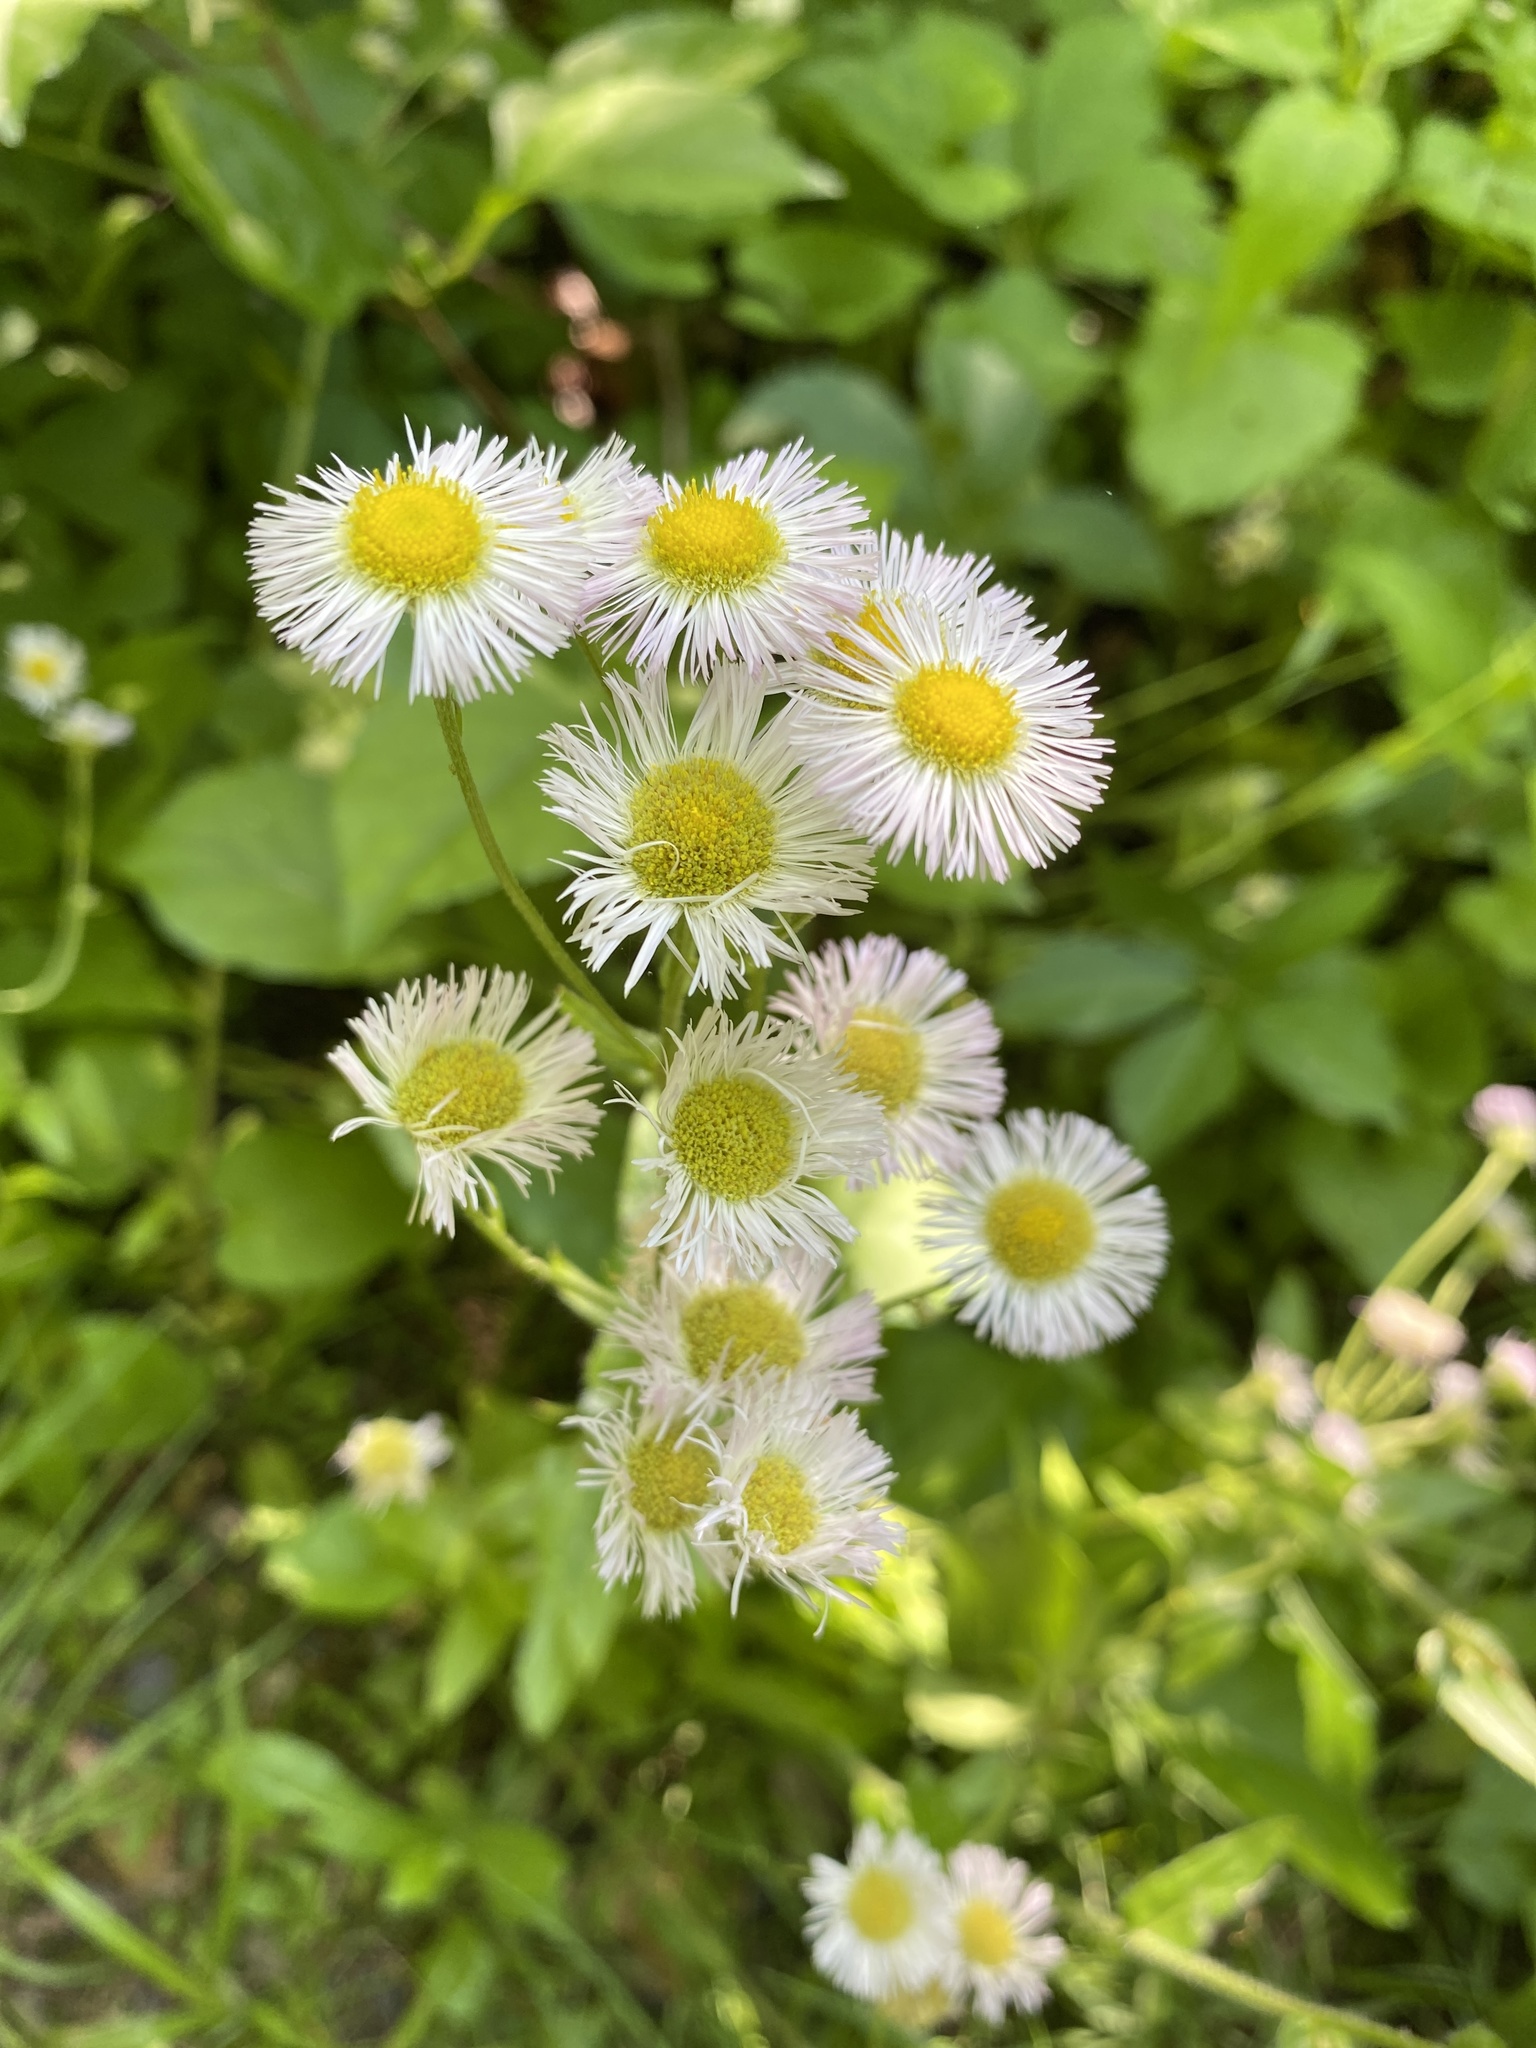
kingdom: Plantae
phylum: Tracheophyta
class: Magnoliopsida
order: Asterales
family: Asteraceae
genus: Erigeron
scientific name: Erigeron philadelphicus
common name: Robin's-plantain
